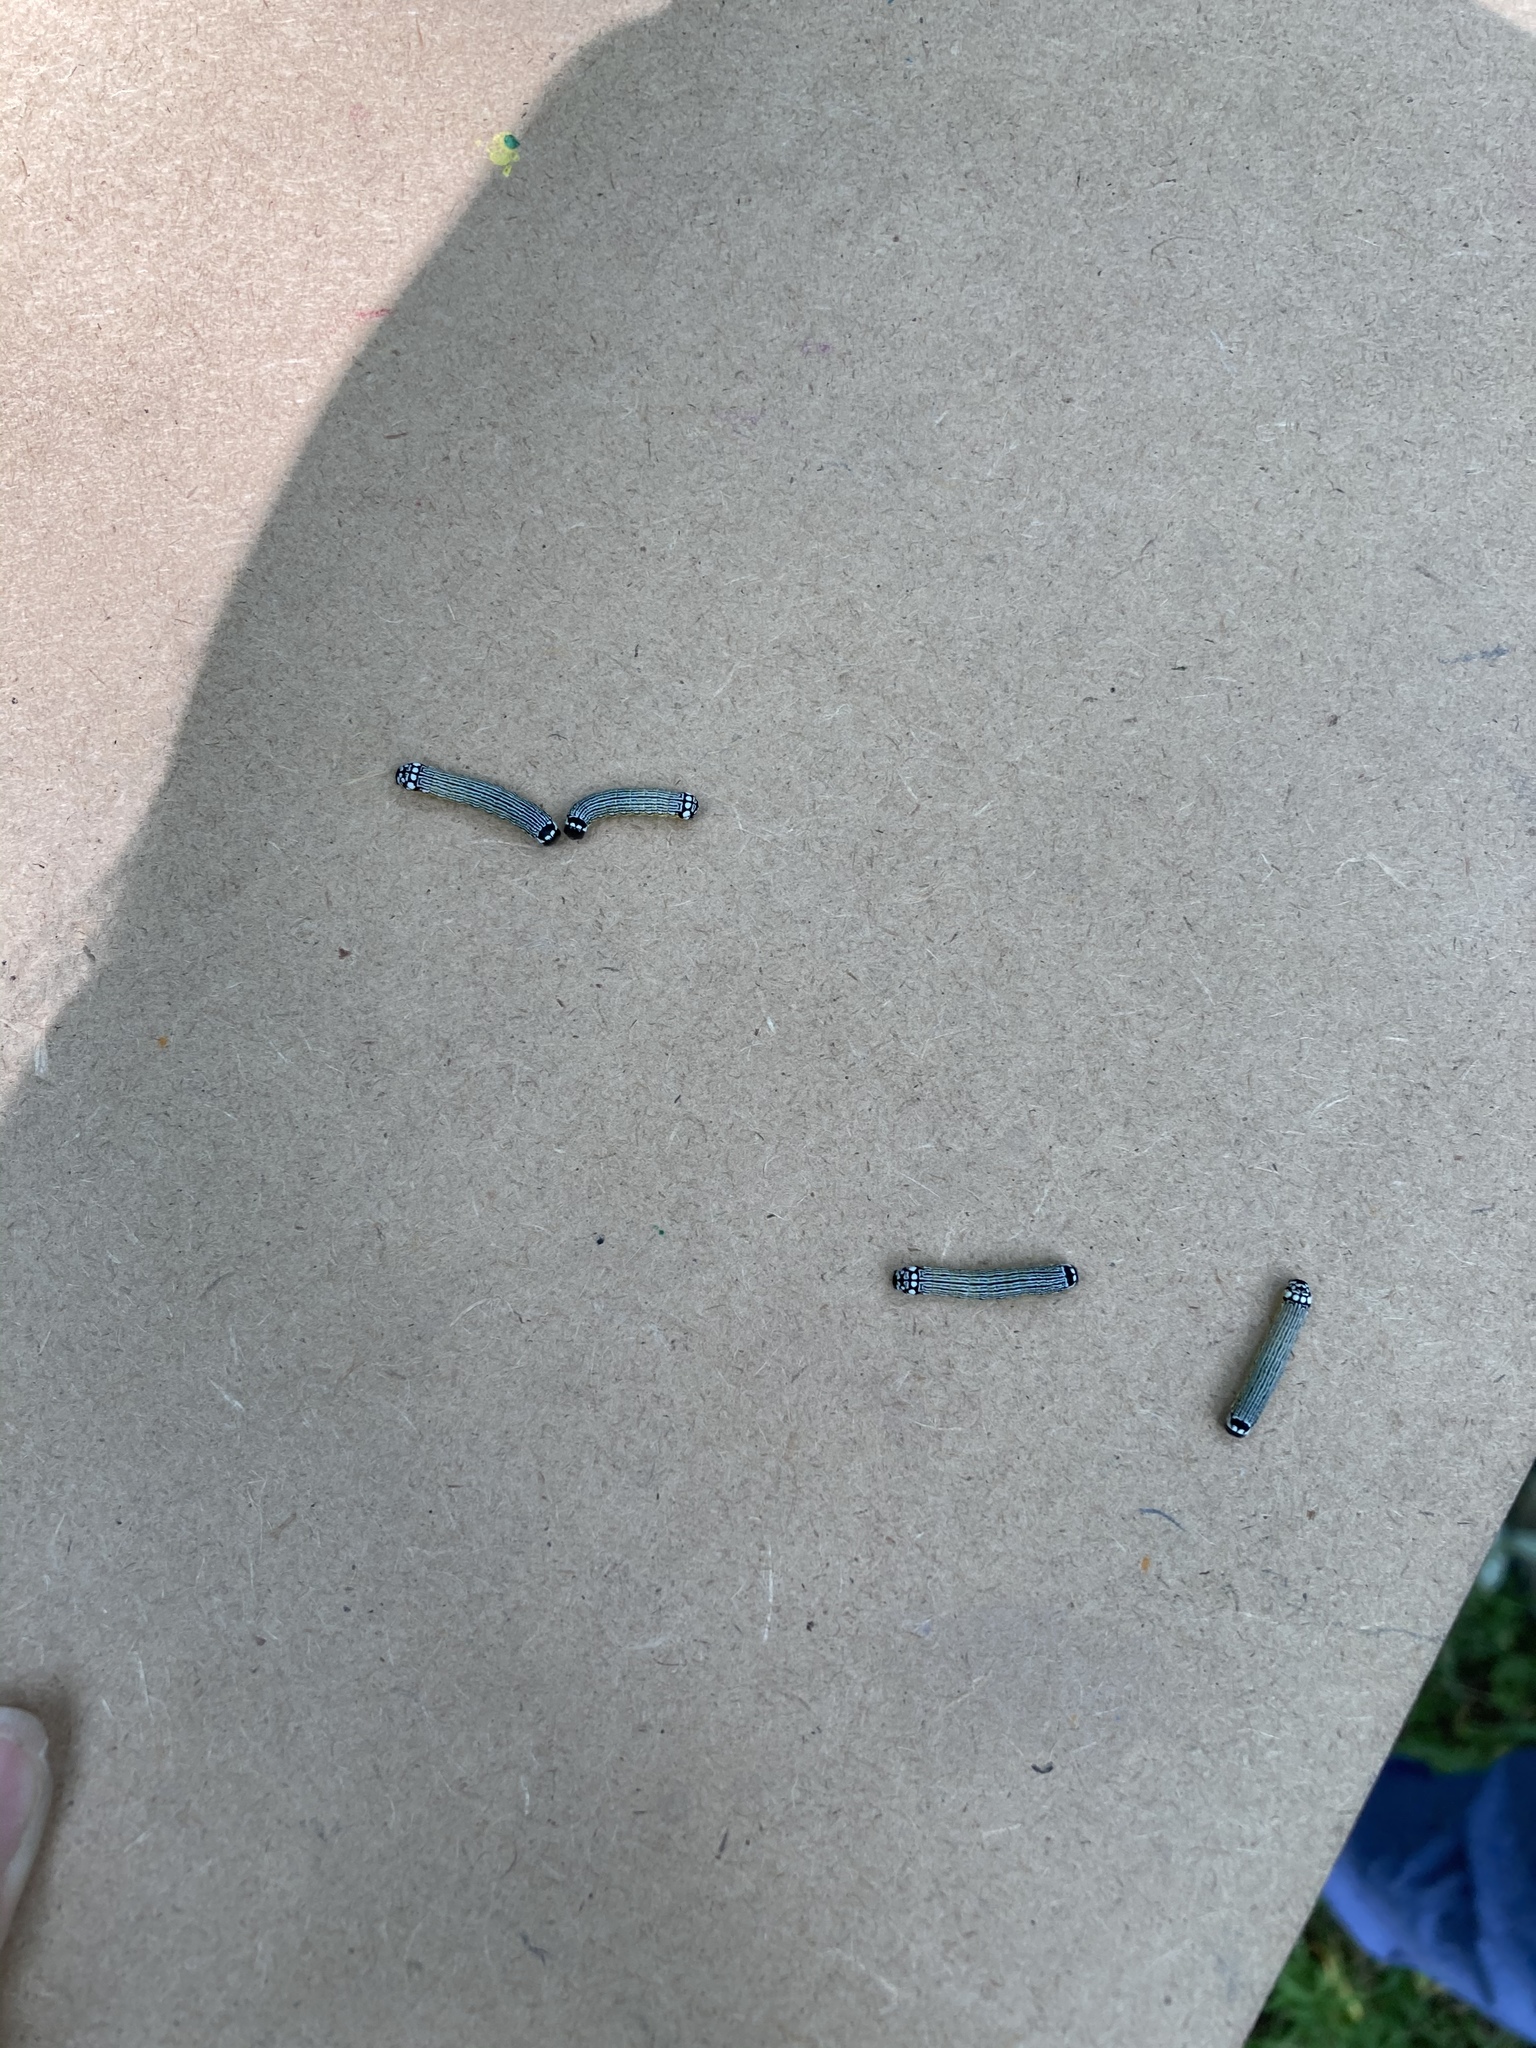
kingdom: Animalia
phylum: Arthropoda
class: Insecta
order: Lepidoptera
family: Noctuidae
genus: Phosphila
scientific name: Phosphila turbulenta
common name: Turbulent phosphila moth
